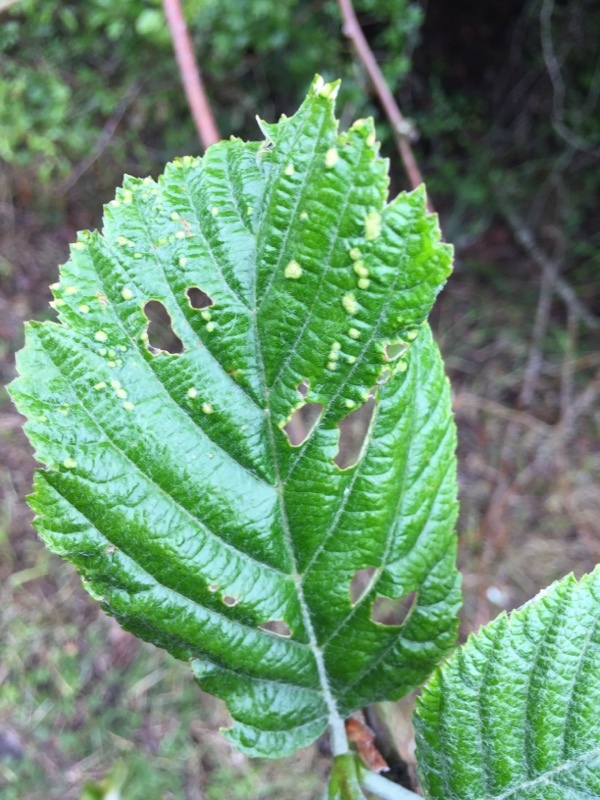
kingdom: Animalia
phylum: Arthropoda
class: Arachnida
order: Trombidiformes
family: Eriophyidae
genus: Eriophyes
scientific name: Eriophyes arianus
